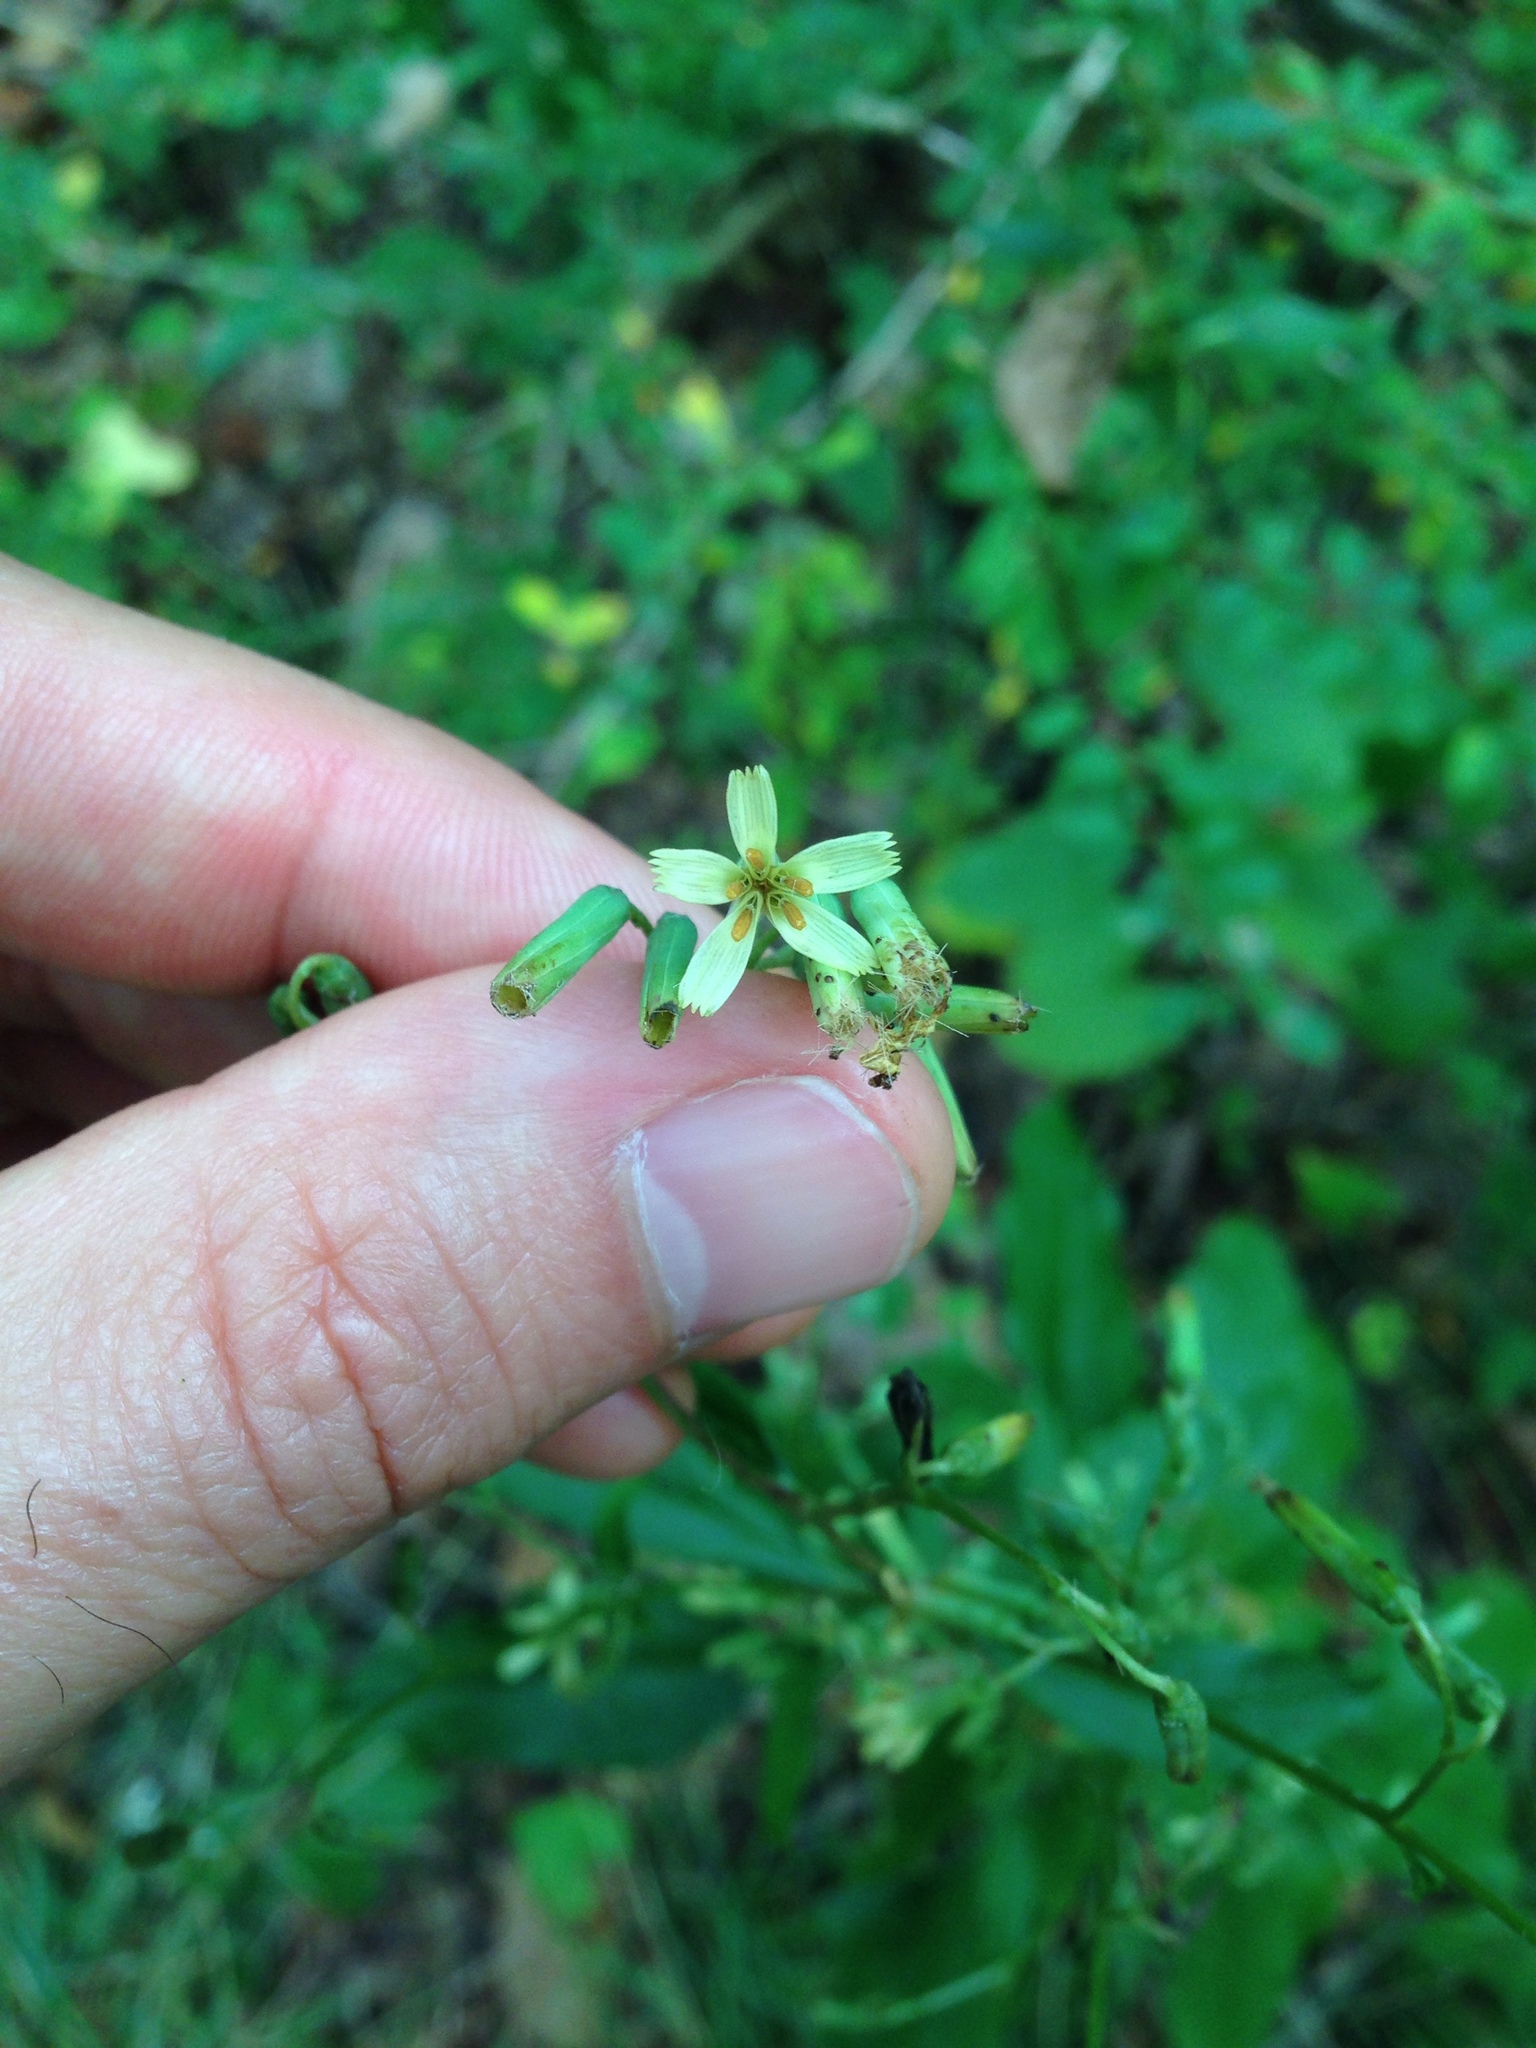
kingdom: Plantae
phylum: Tracheophyta
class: Magnoliopsida
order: Asterales
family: Asteraceae
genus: Nabalus
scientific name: Nabalus altissima
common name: Tall rattlesnakeroot
